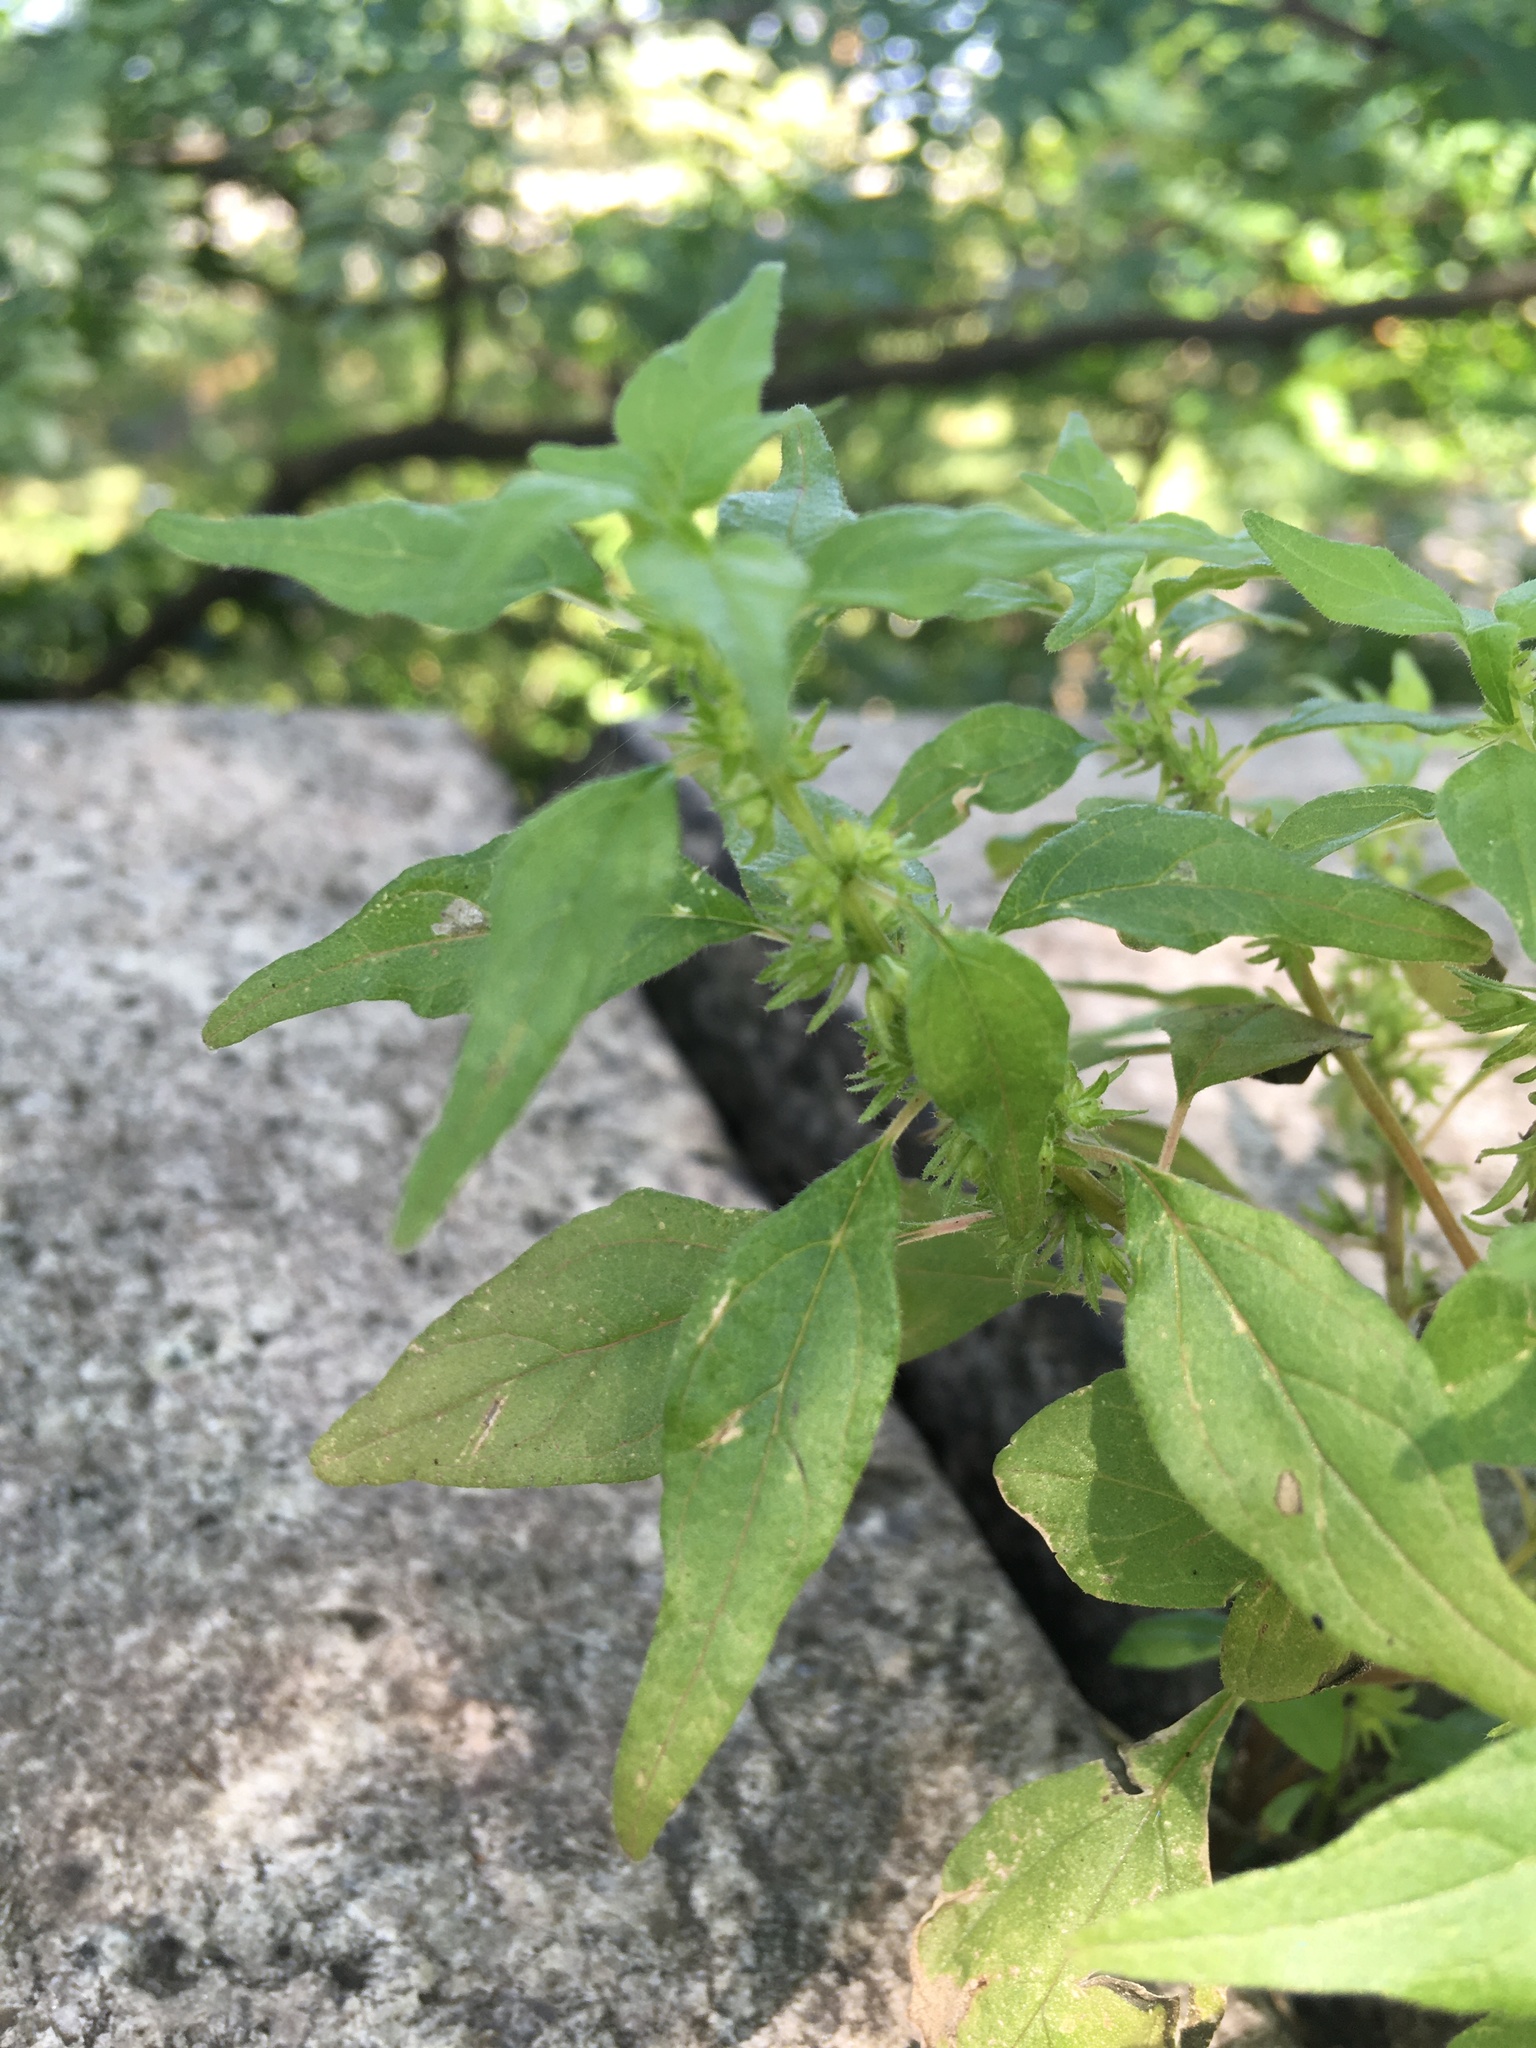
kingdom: Plantae
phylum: Tracheophyta
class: Magnoliopsida
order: Rosales
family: Urticaceae
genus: Parietaria
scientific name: Parietaria pensylvanica
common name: Pennsylvania pellitory
